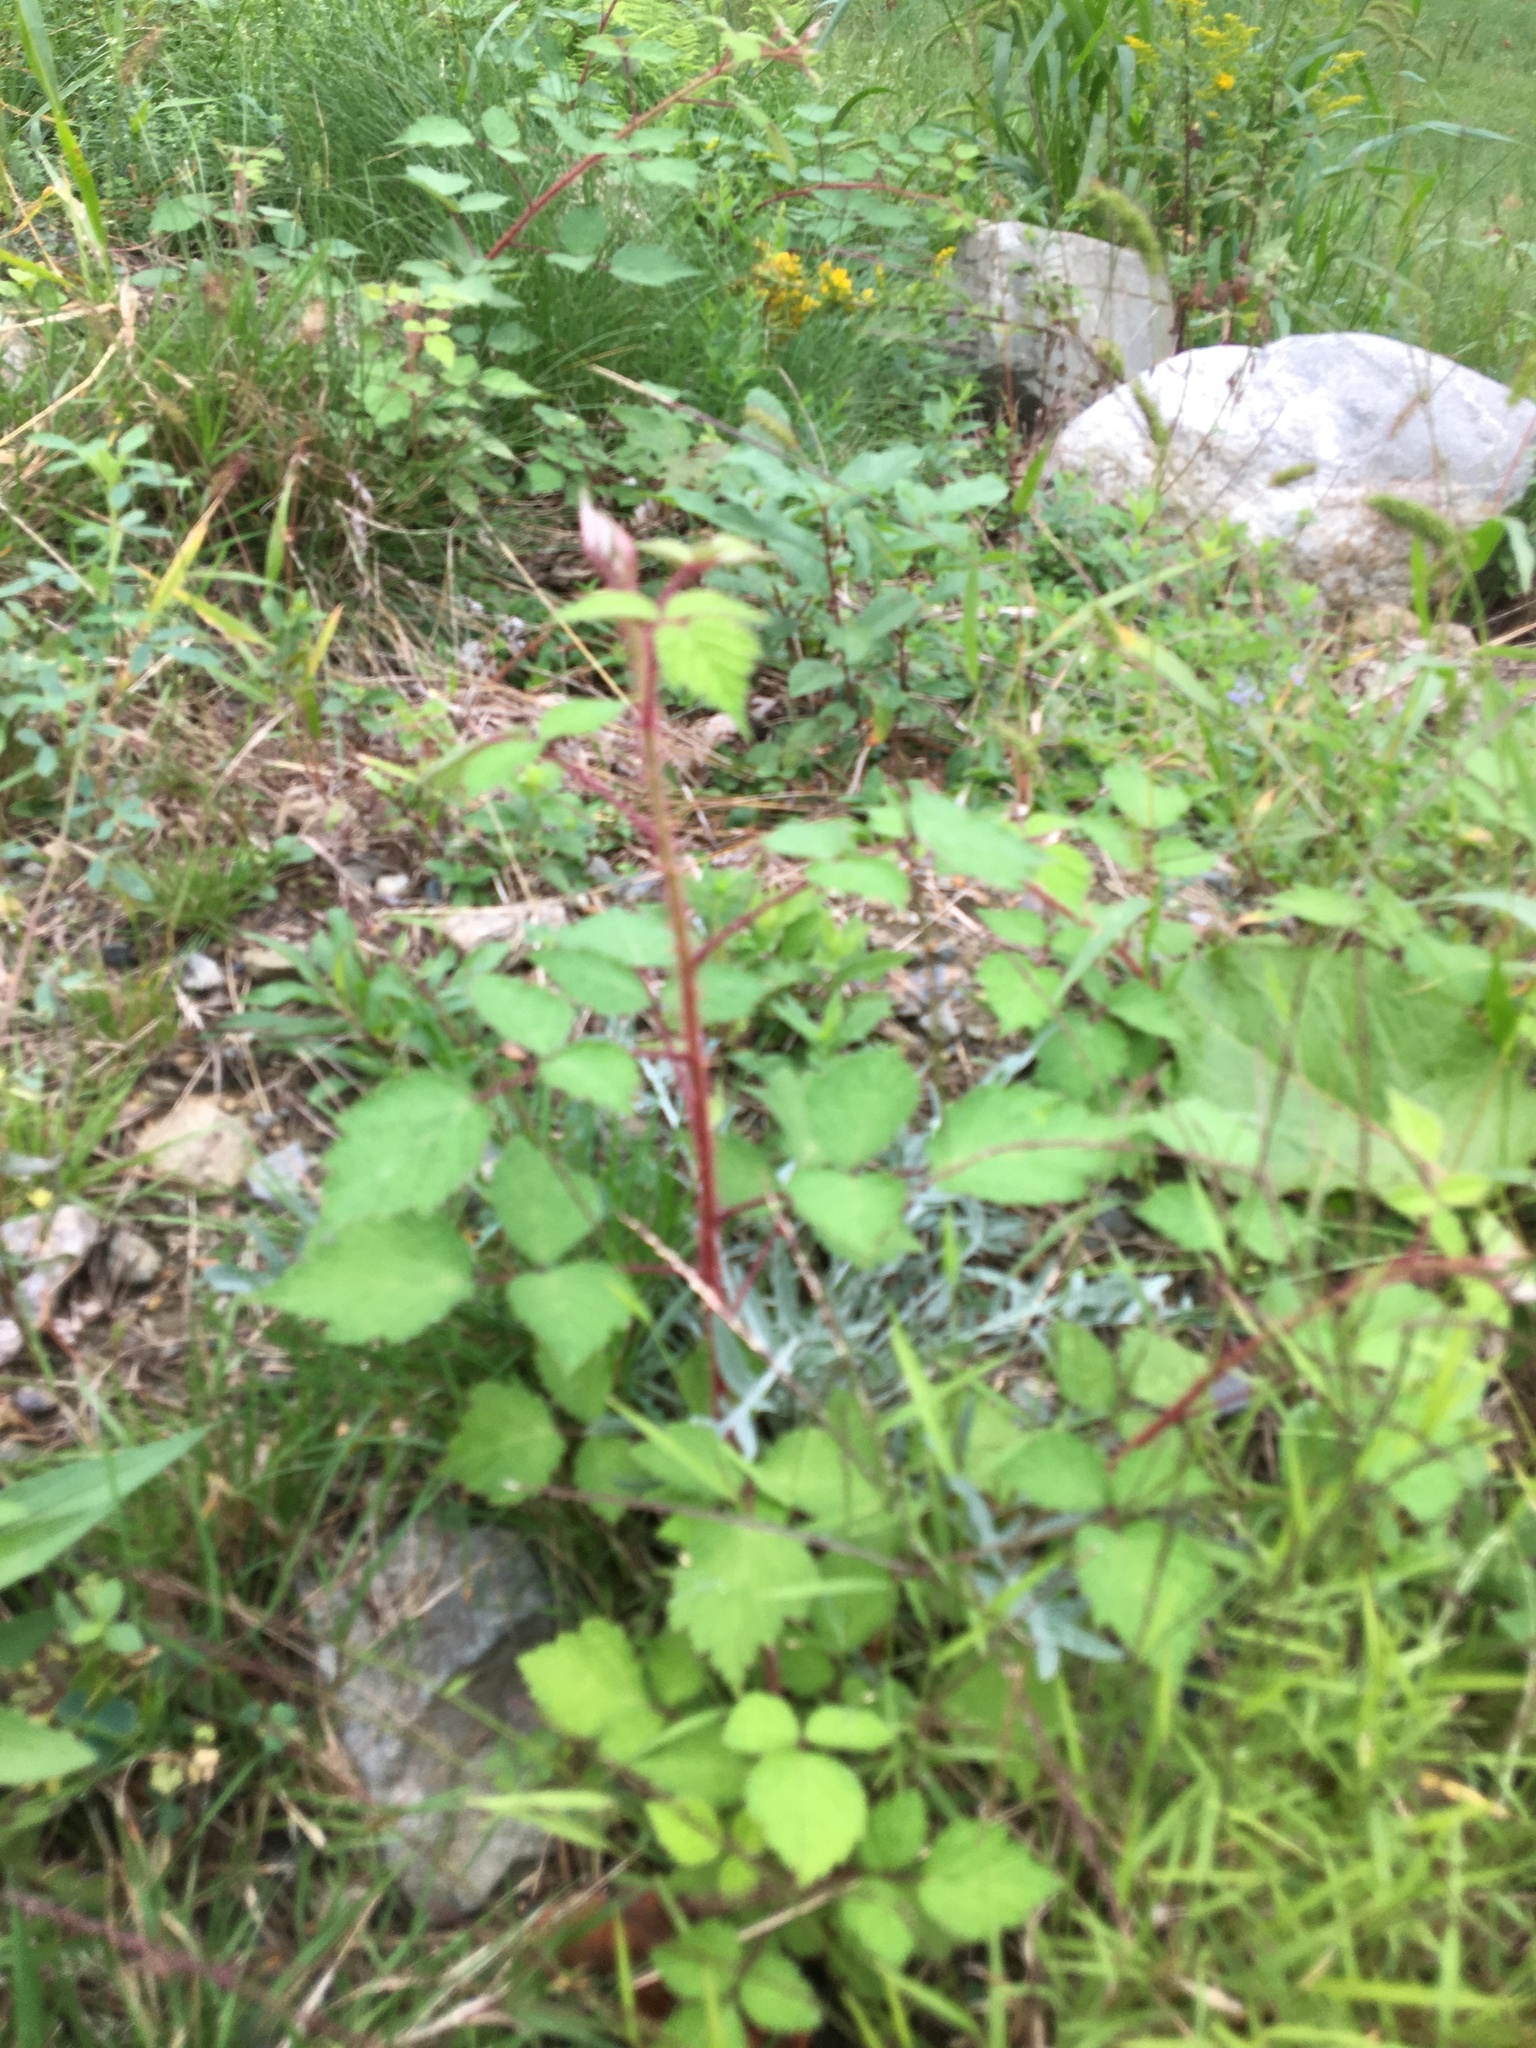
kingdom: Plantae
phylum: Tracheophyta
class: Magnoliopsida
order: Rosales
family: Rosaceae
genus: Rubus
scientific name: Rubus phoenicolasius
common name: Japanese wineberry
